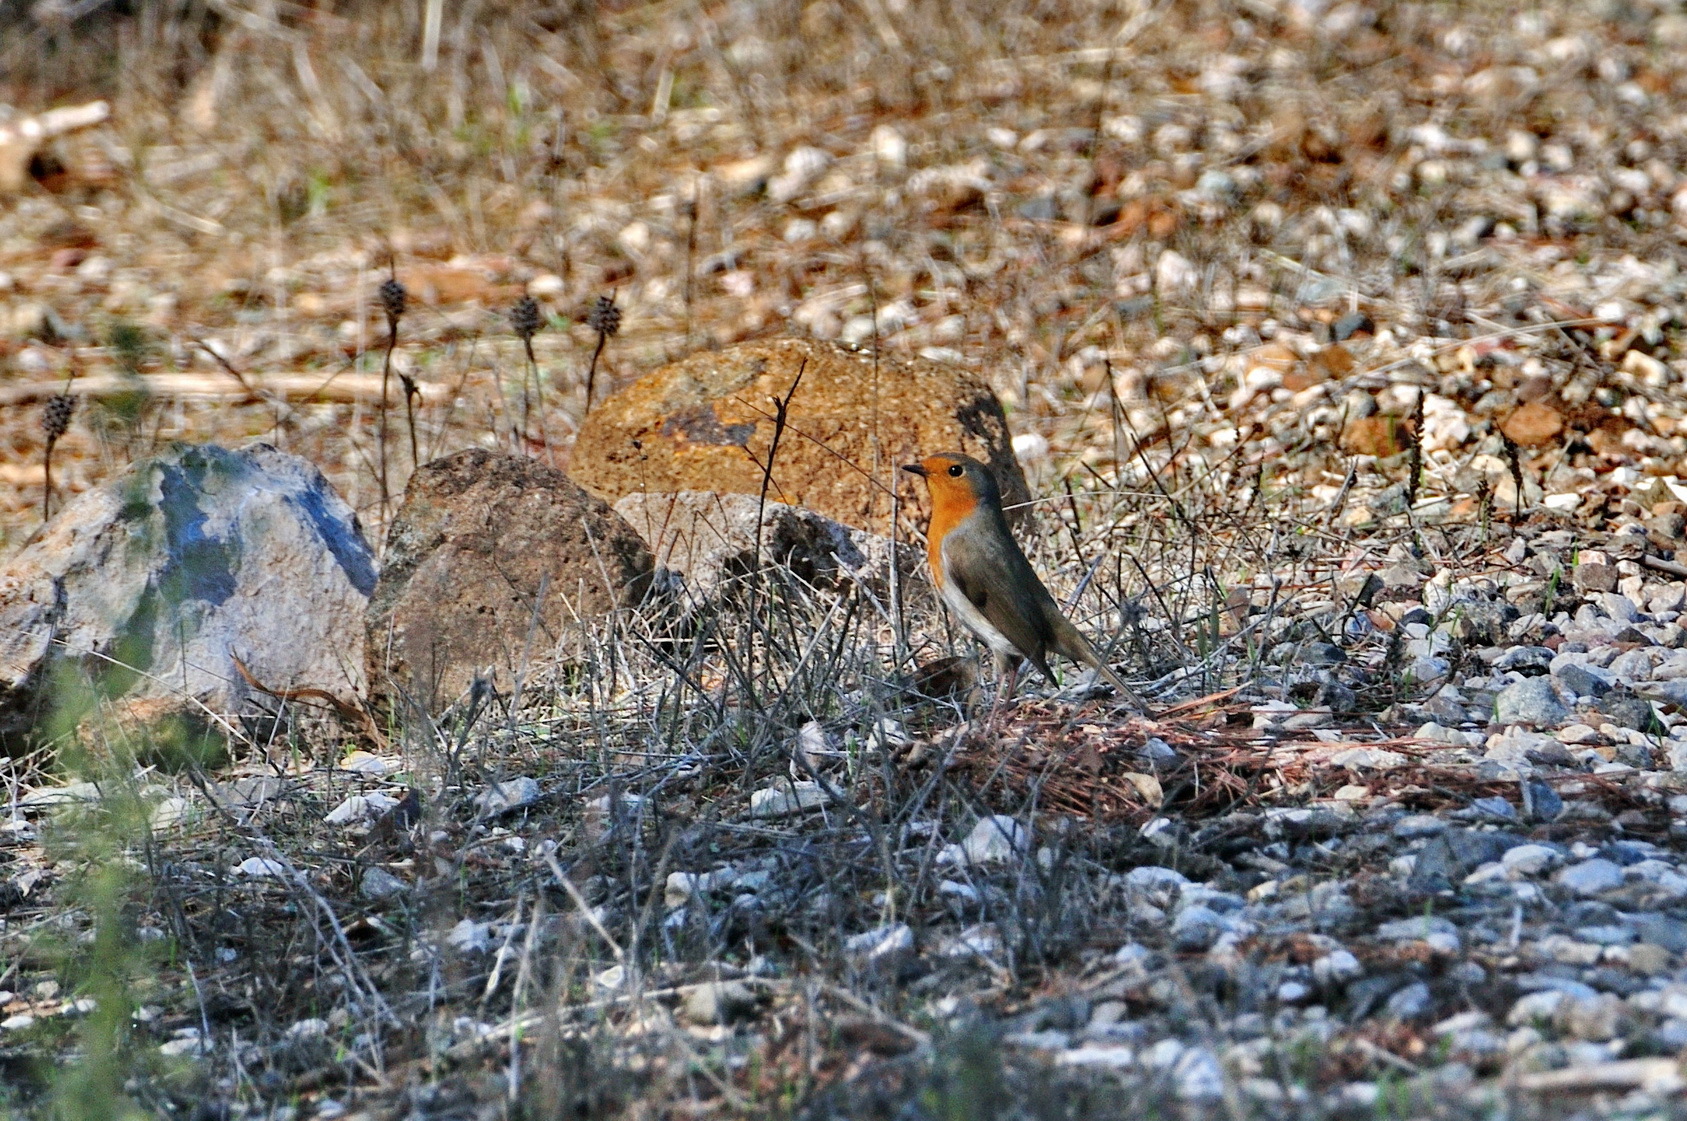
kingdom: Animalia
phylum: Chordata
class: Aves
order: Passeriformes
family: Muscicapidae
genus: Erithacus
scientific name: Erithacus rubecula
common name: European robin
